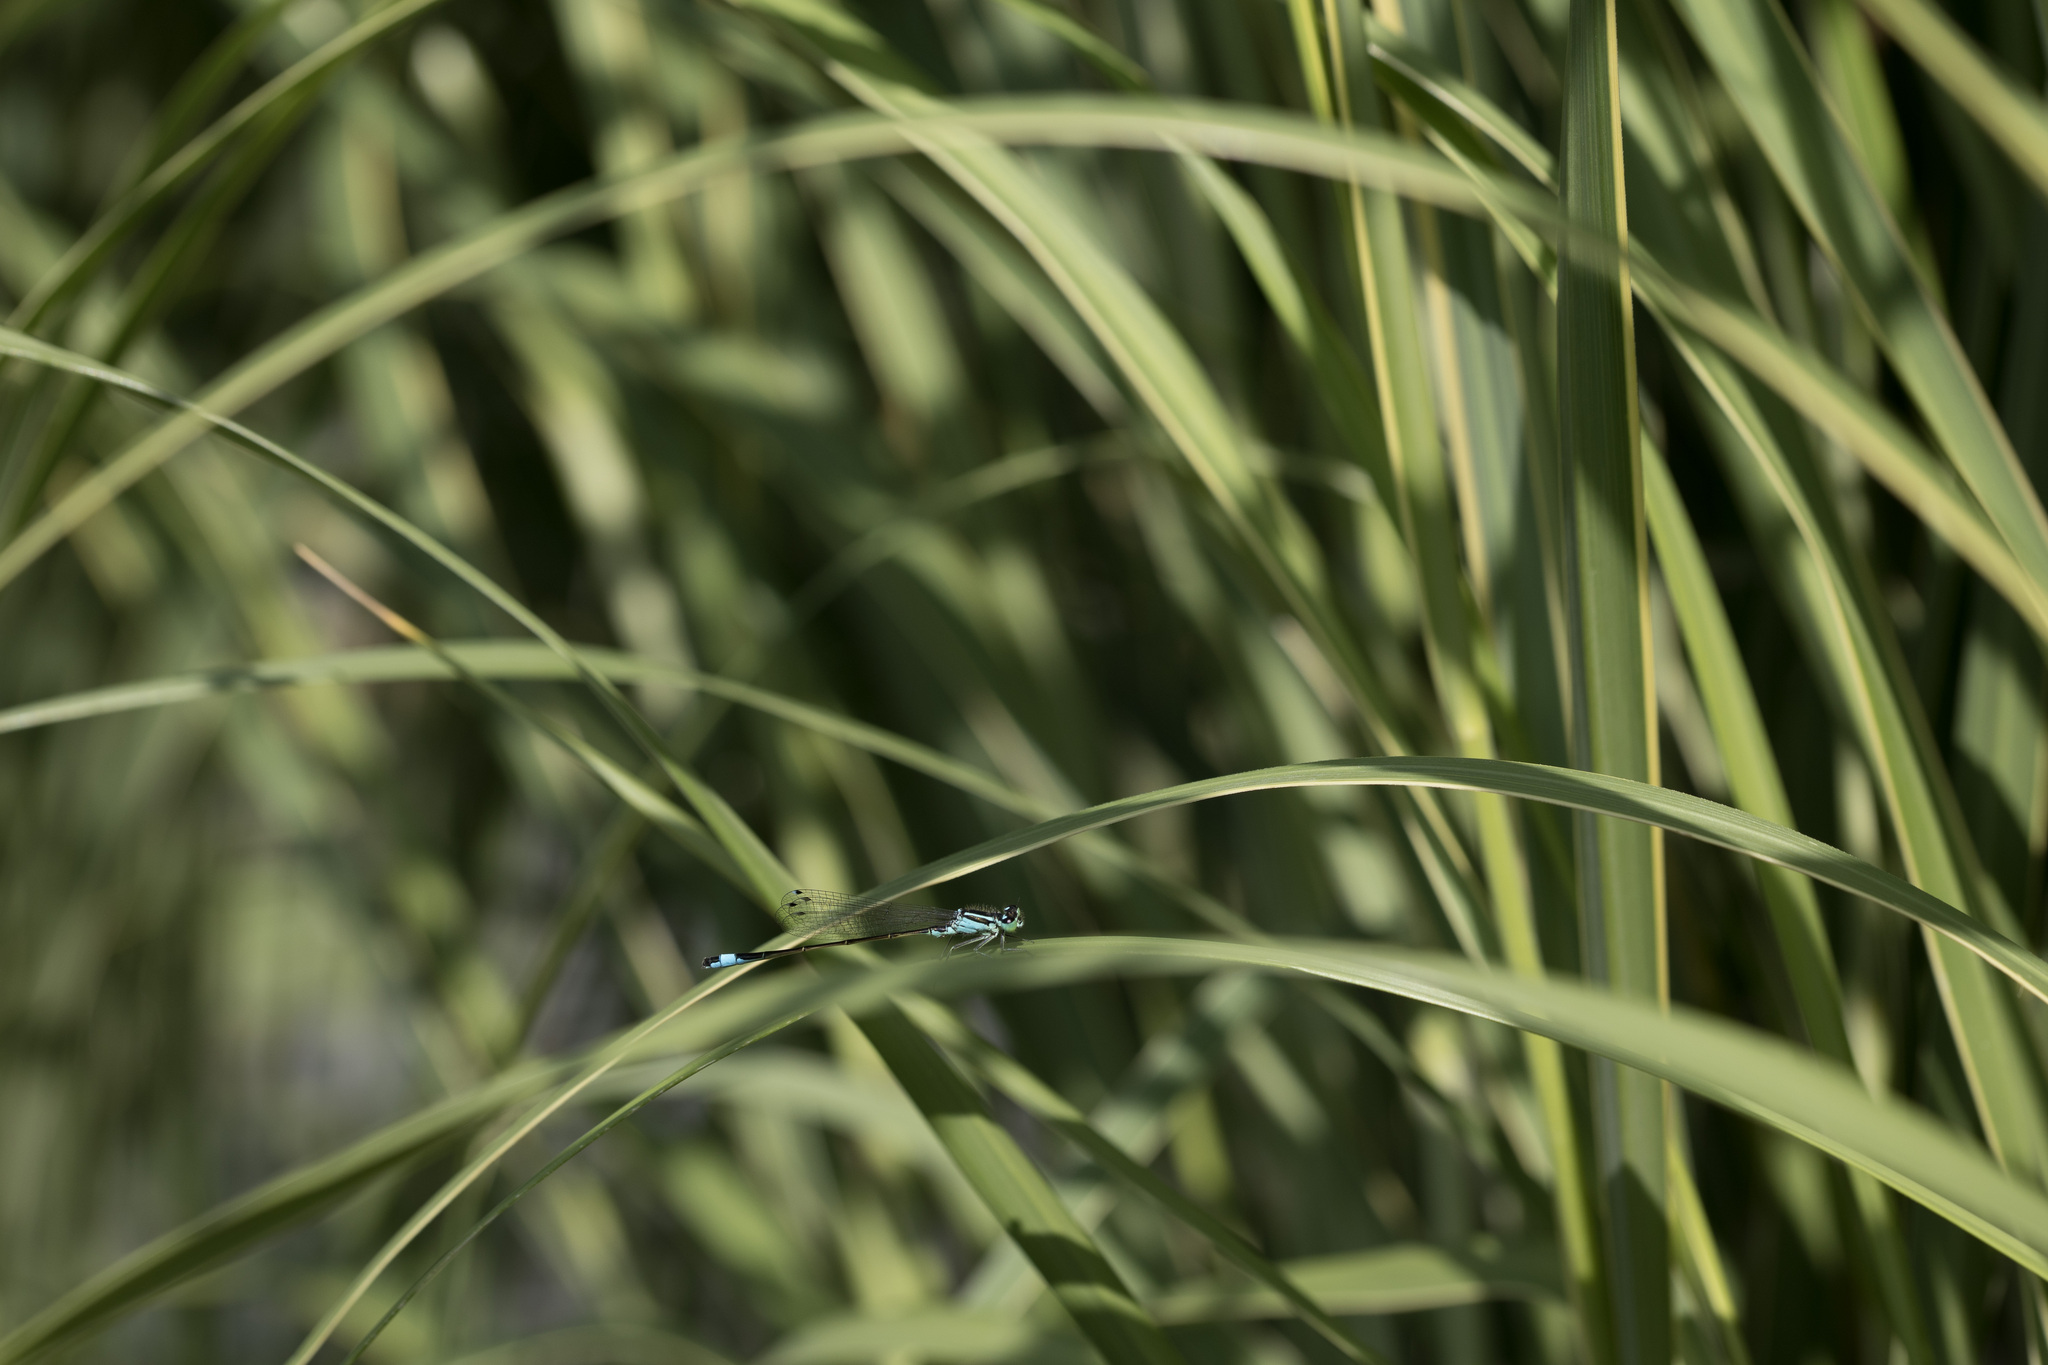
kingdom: Animalia
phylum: Arthropoda
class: Insecta
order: Odonata
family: Coenagrionidae
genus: Ischnura
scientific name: Ischnura elegans
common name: Blue-tailed damselfly
